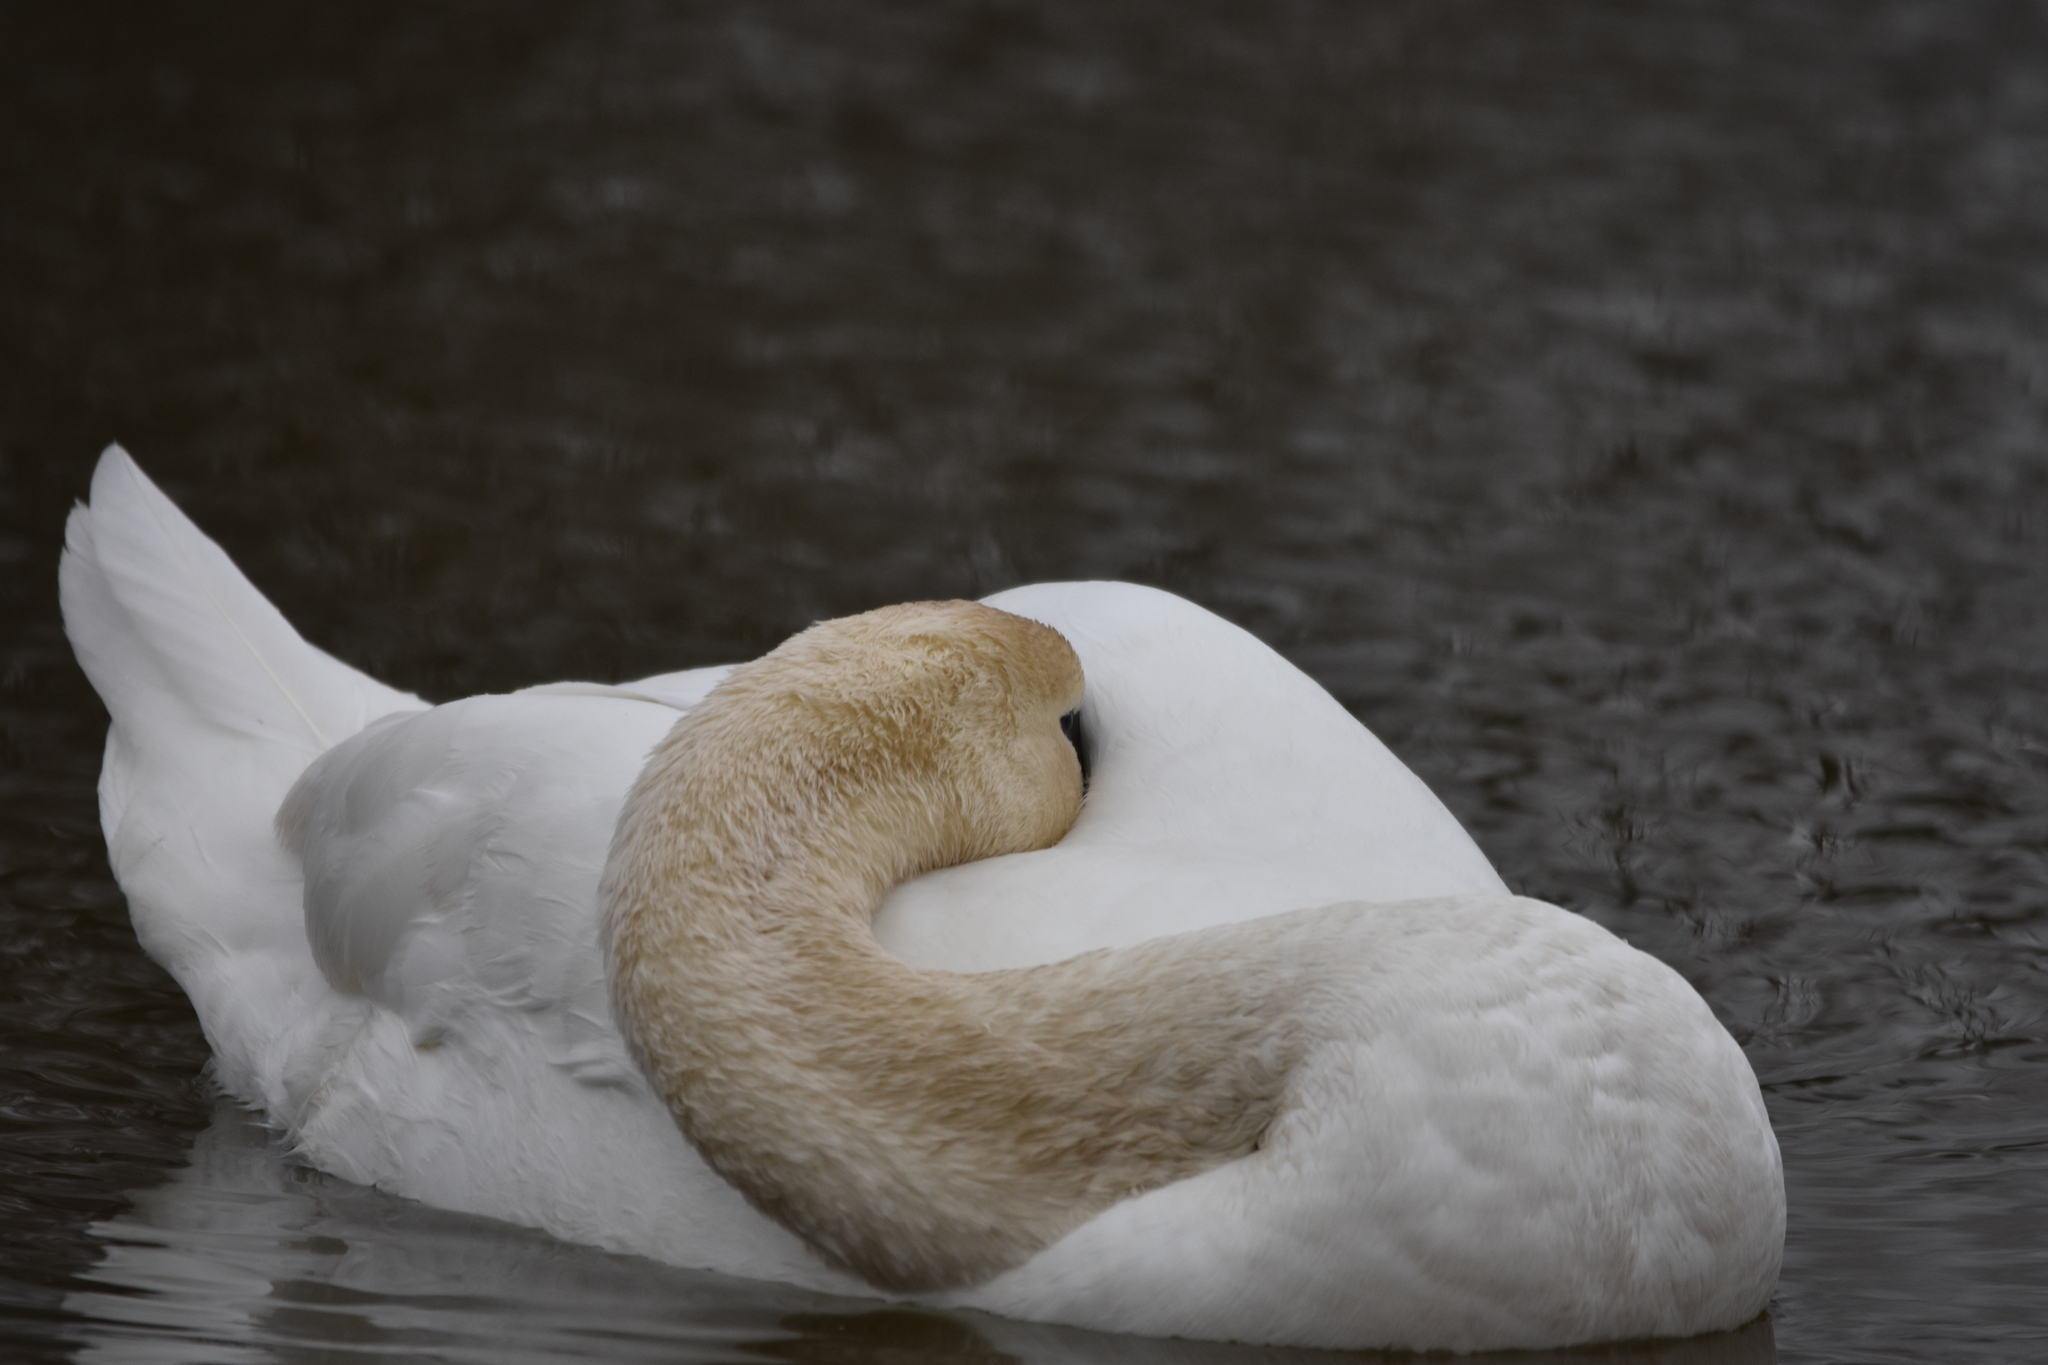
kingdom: Animalia
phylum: Chordata
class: Aves
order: Anseriformes
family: Anatidae
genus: Cygnus
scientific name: Cygnus olor
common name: Mute swan
